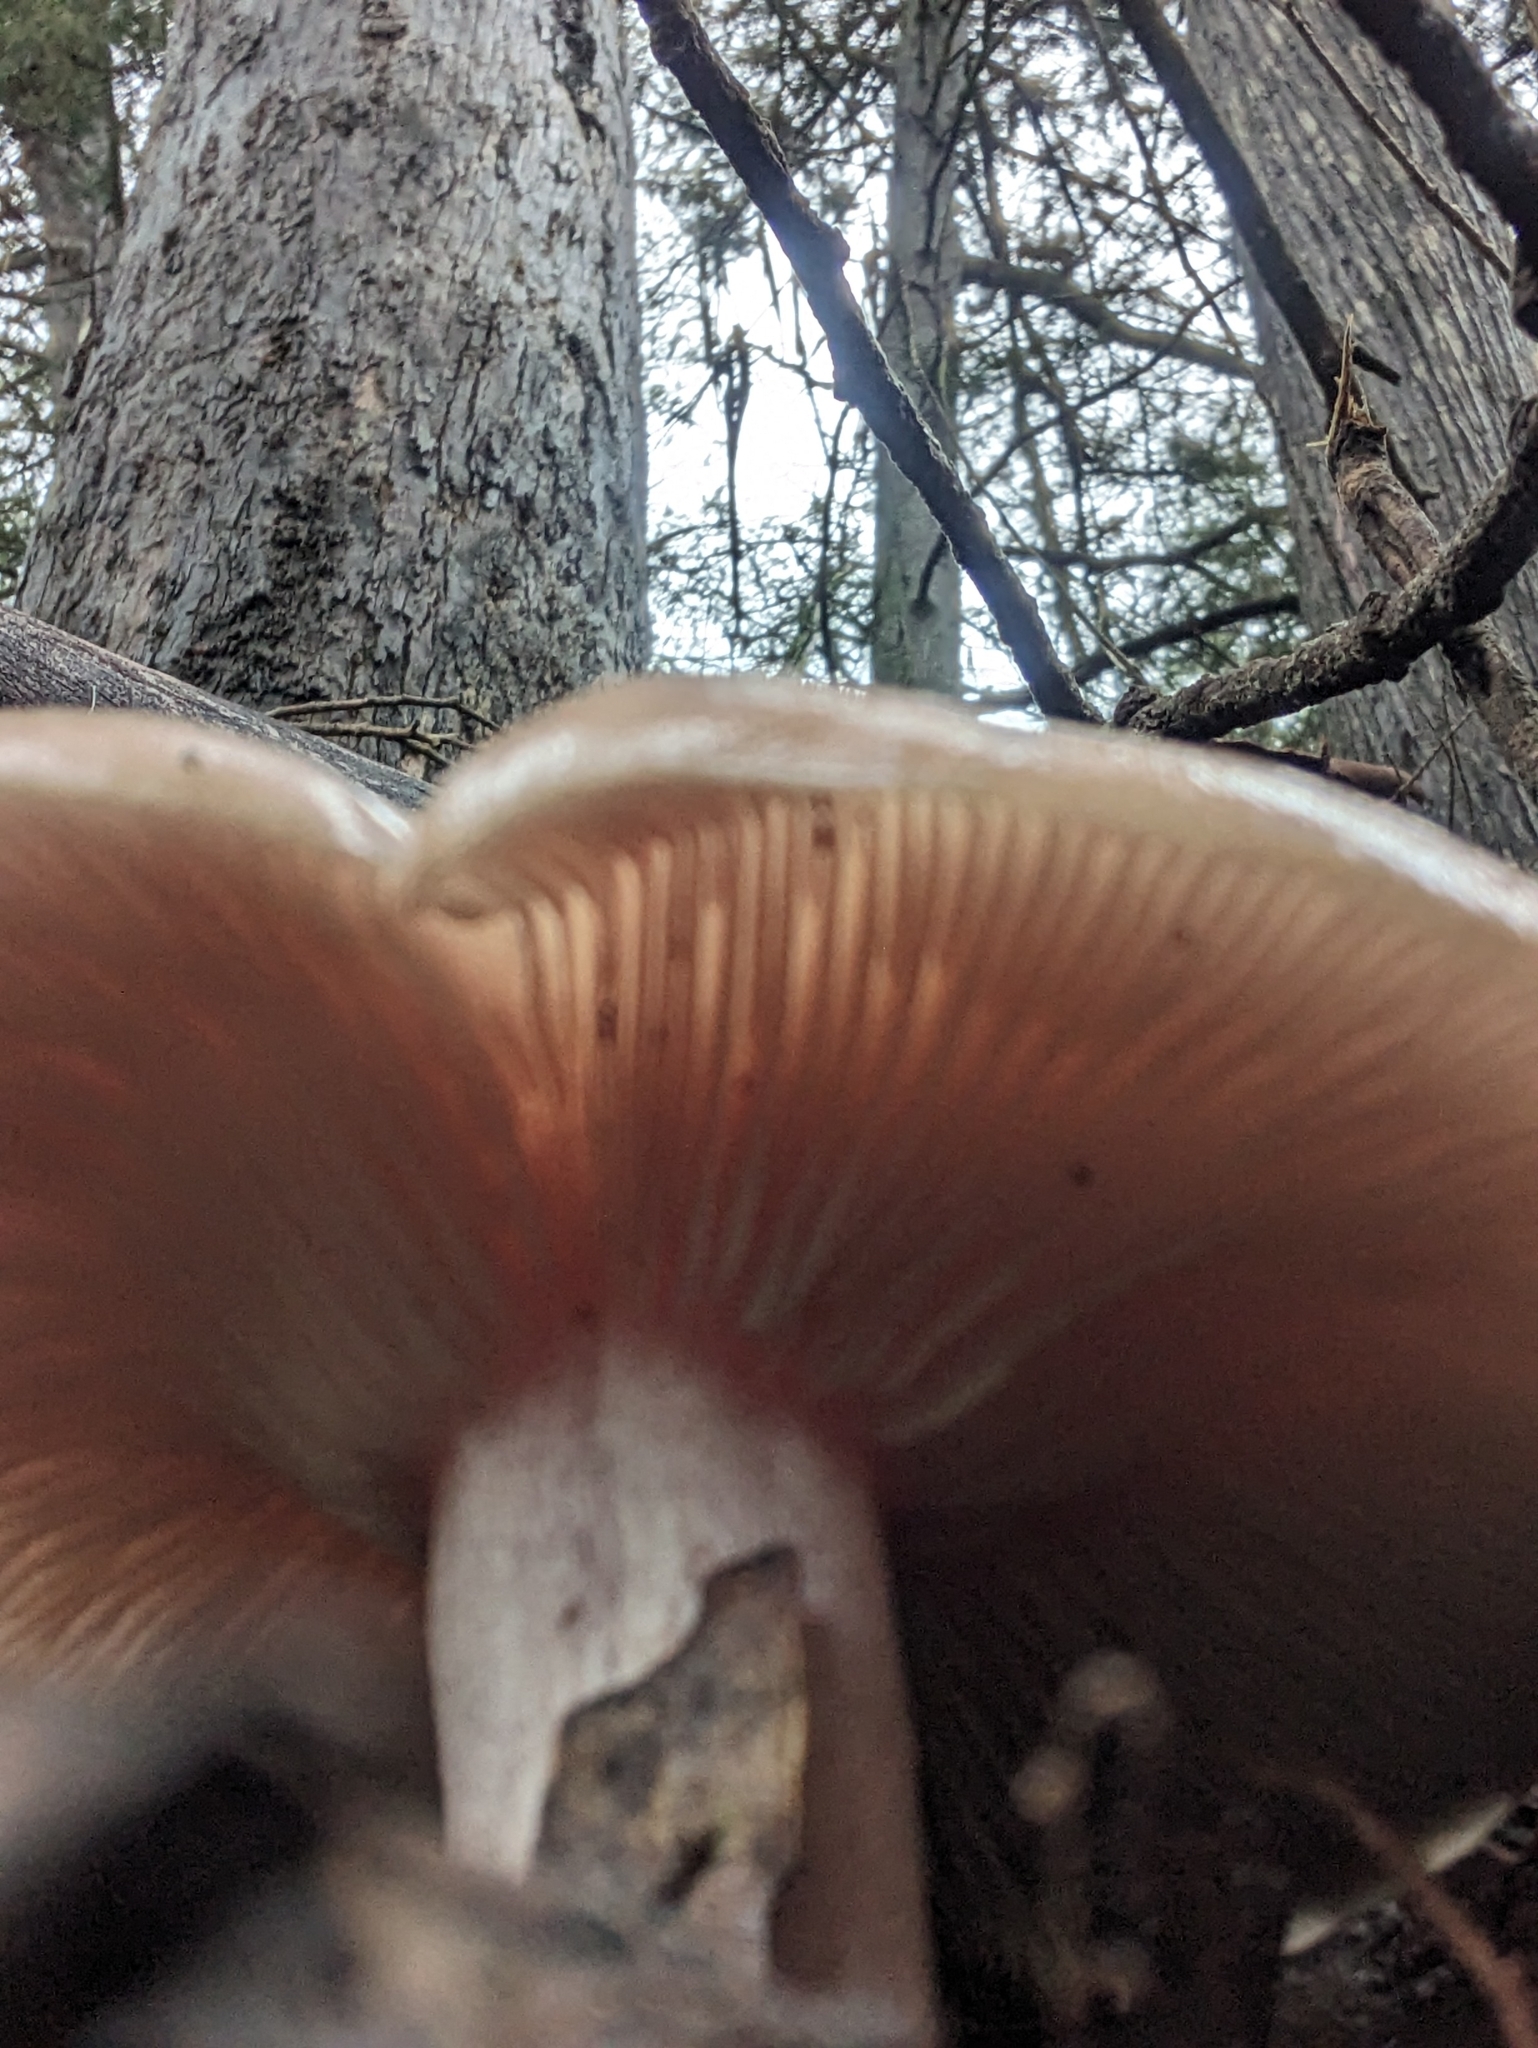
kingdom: Fungi
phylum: Basidiomycota
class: Agaricomycetes
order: Agaricales
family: Tricholomataceae
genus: Collybia
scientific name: Collybia
